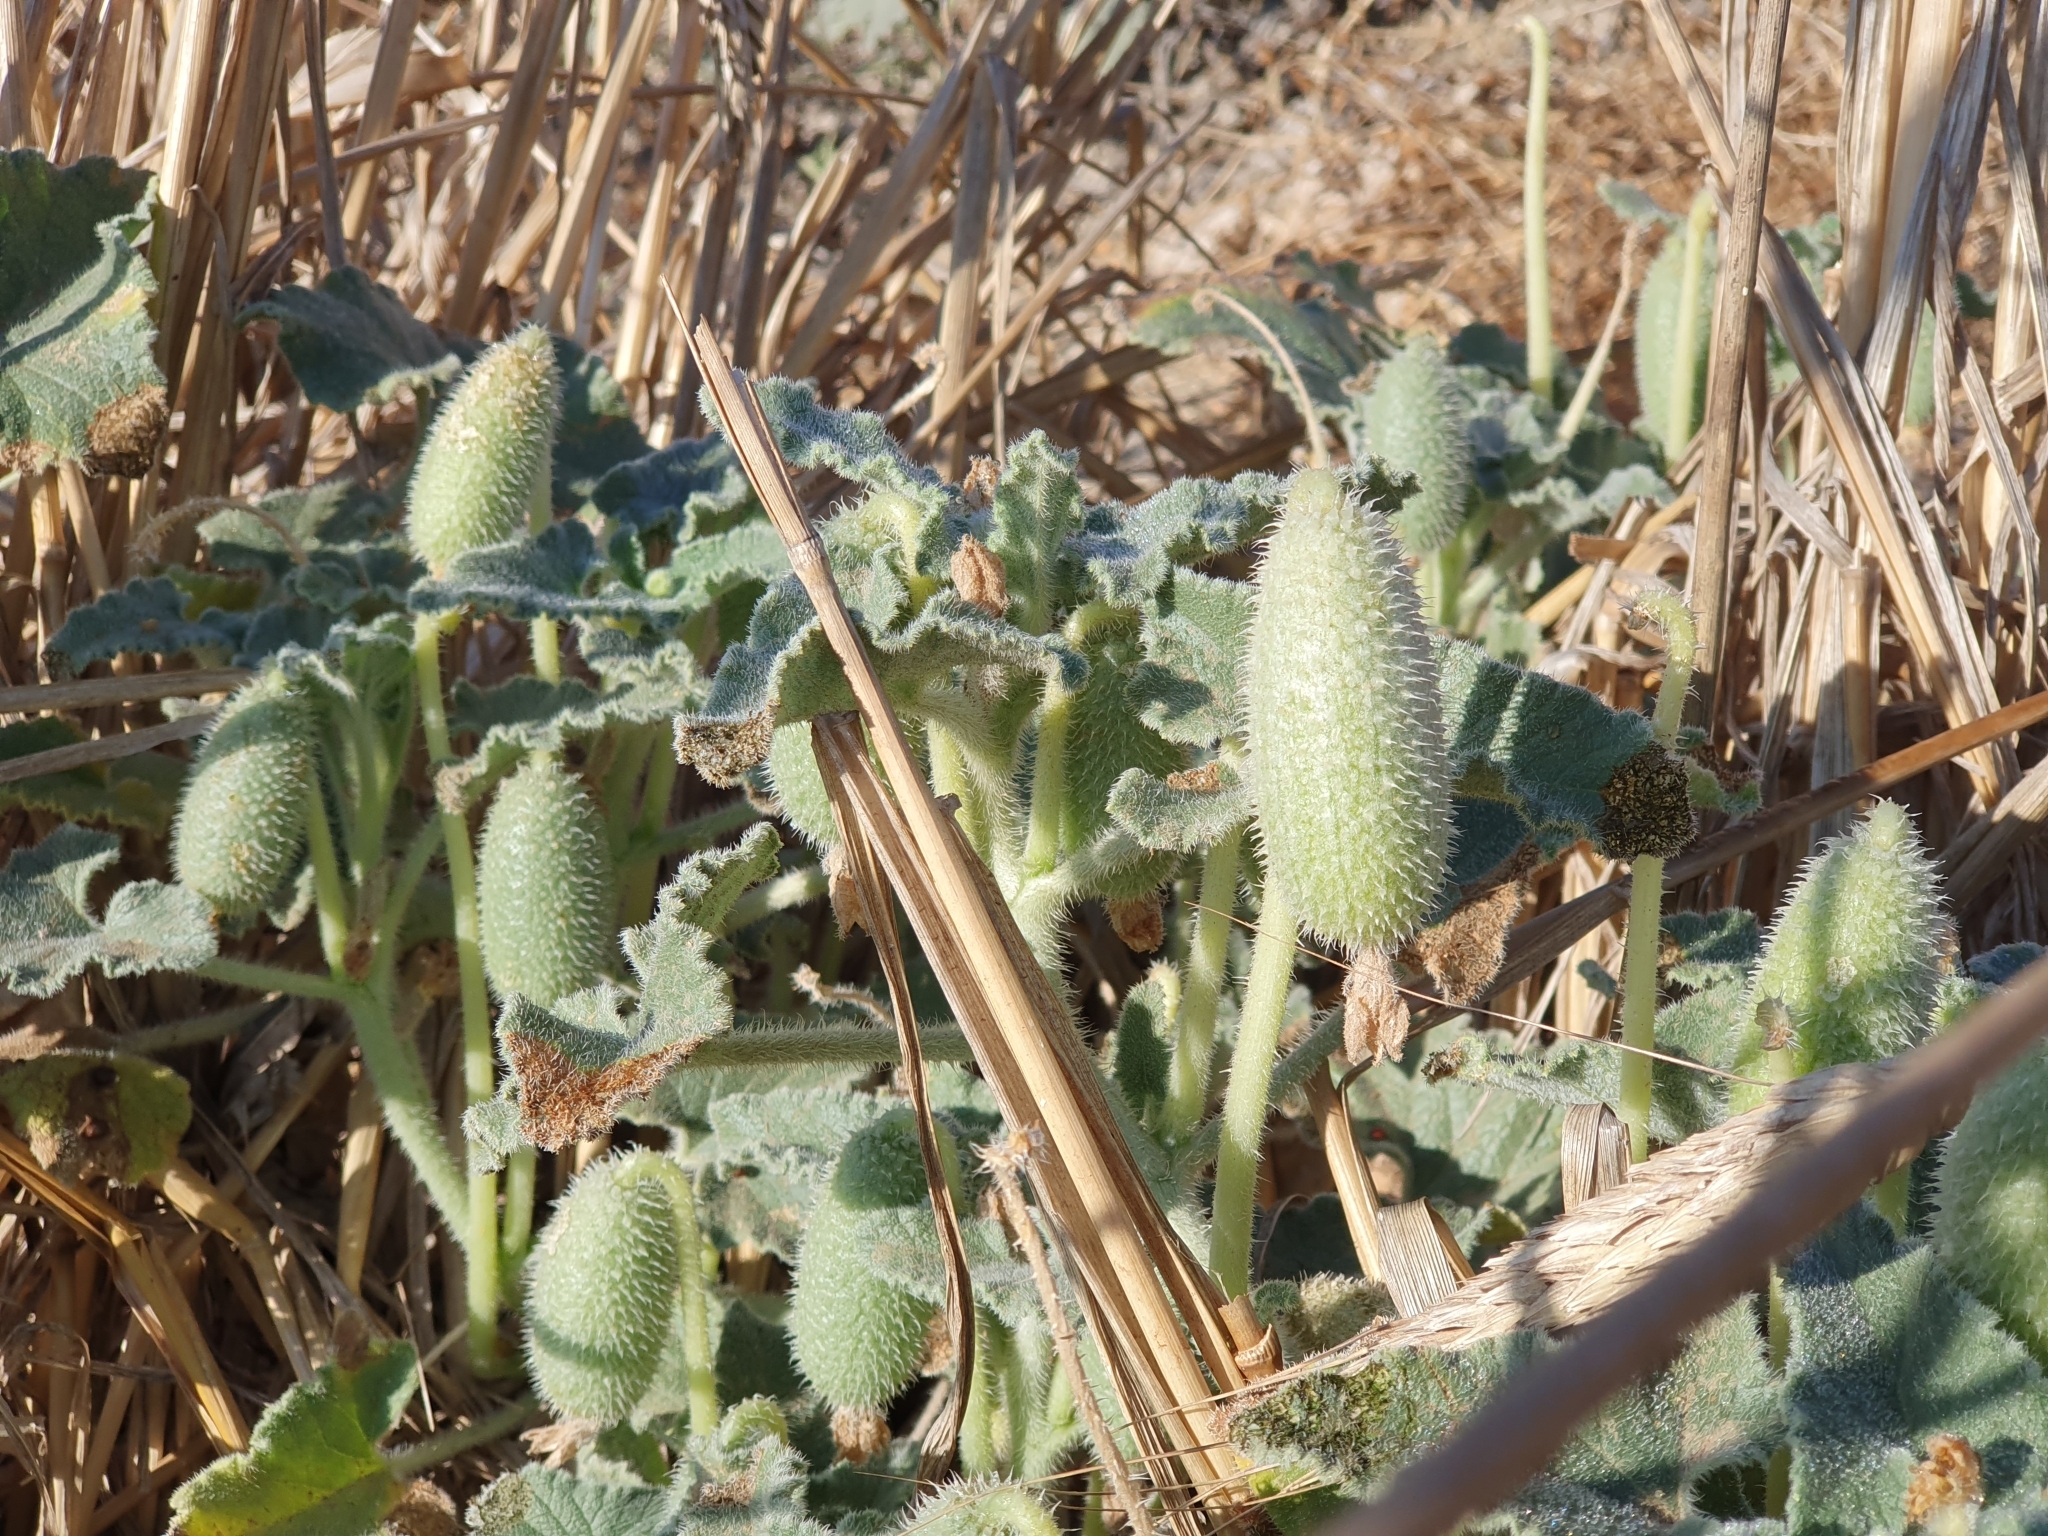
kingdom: Plantae
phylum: Tracheophyta
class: Magnoliopsida
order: Cucurbitales
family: Cucurbitaceae
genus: Ecballium
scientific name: Ecballium elaterium
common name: Squirting cucumber
